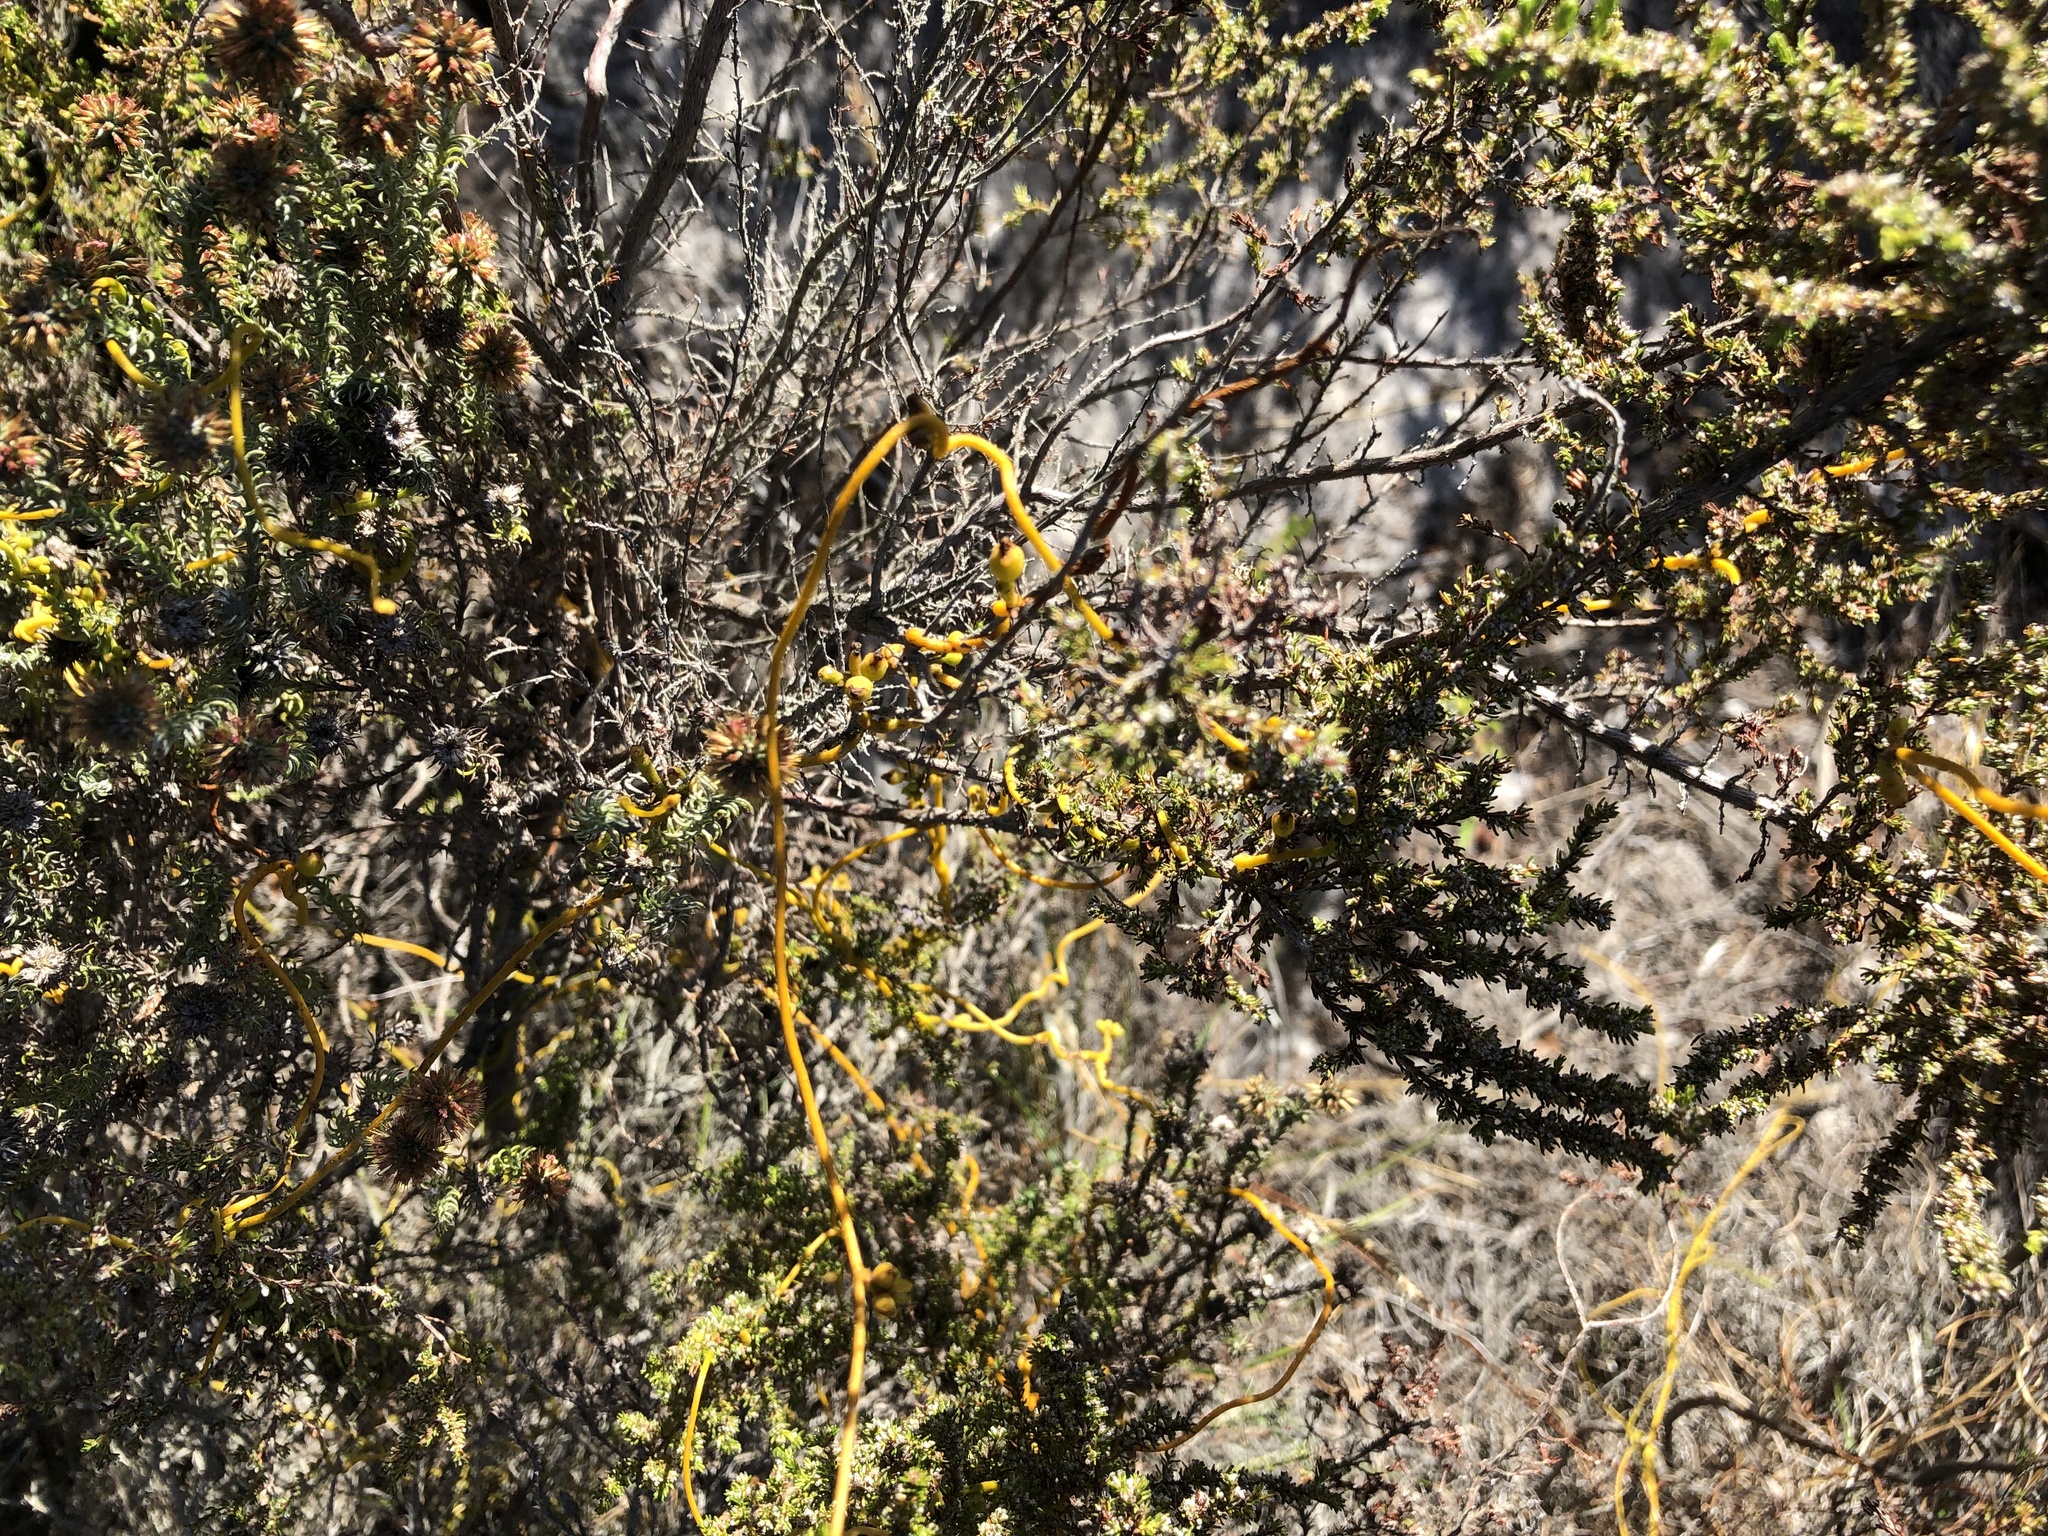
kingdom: Plantae
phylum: Tracheophyta
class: Magnoliopsida
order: Laurales
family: Lauraceae
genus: Cassytha
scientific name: Cassytha ciliolata
